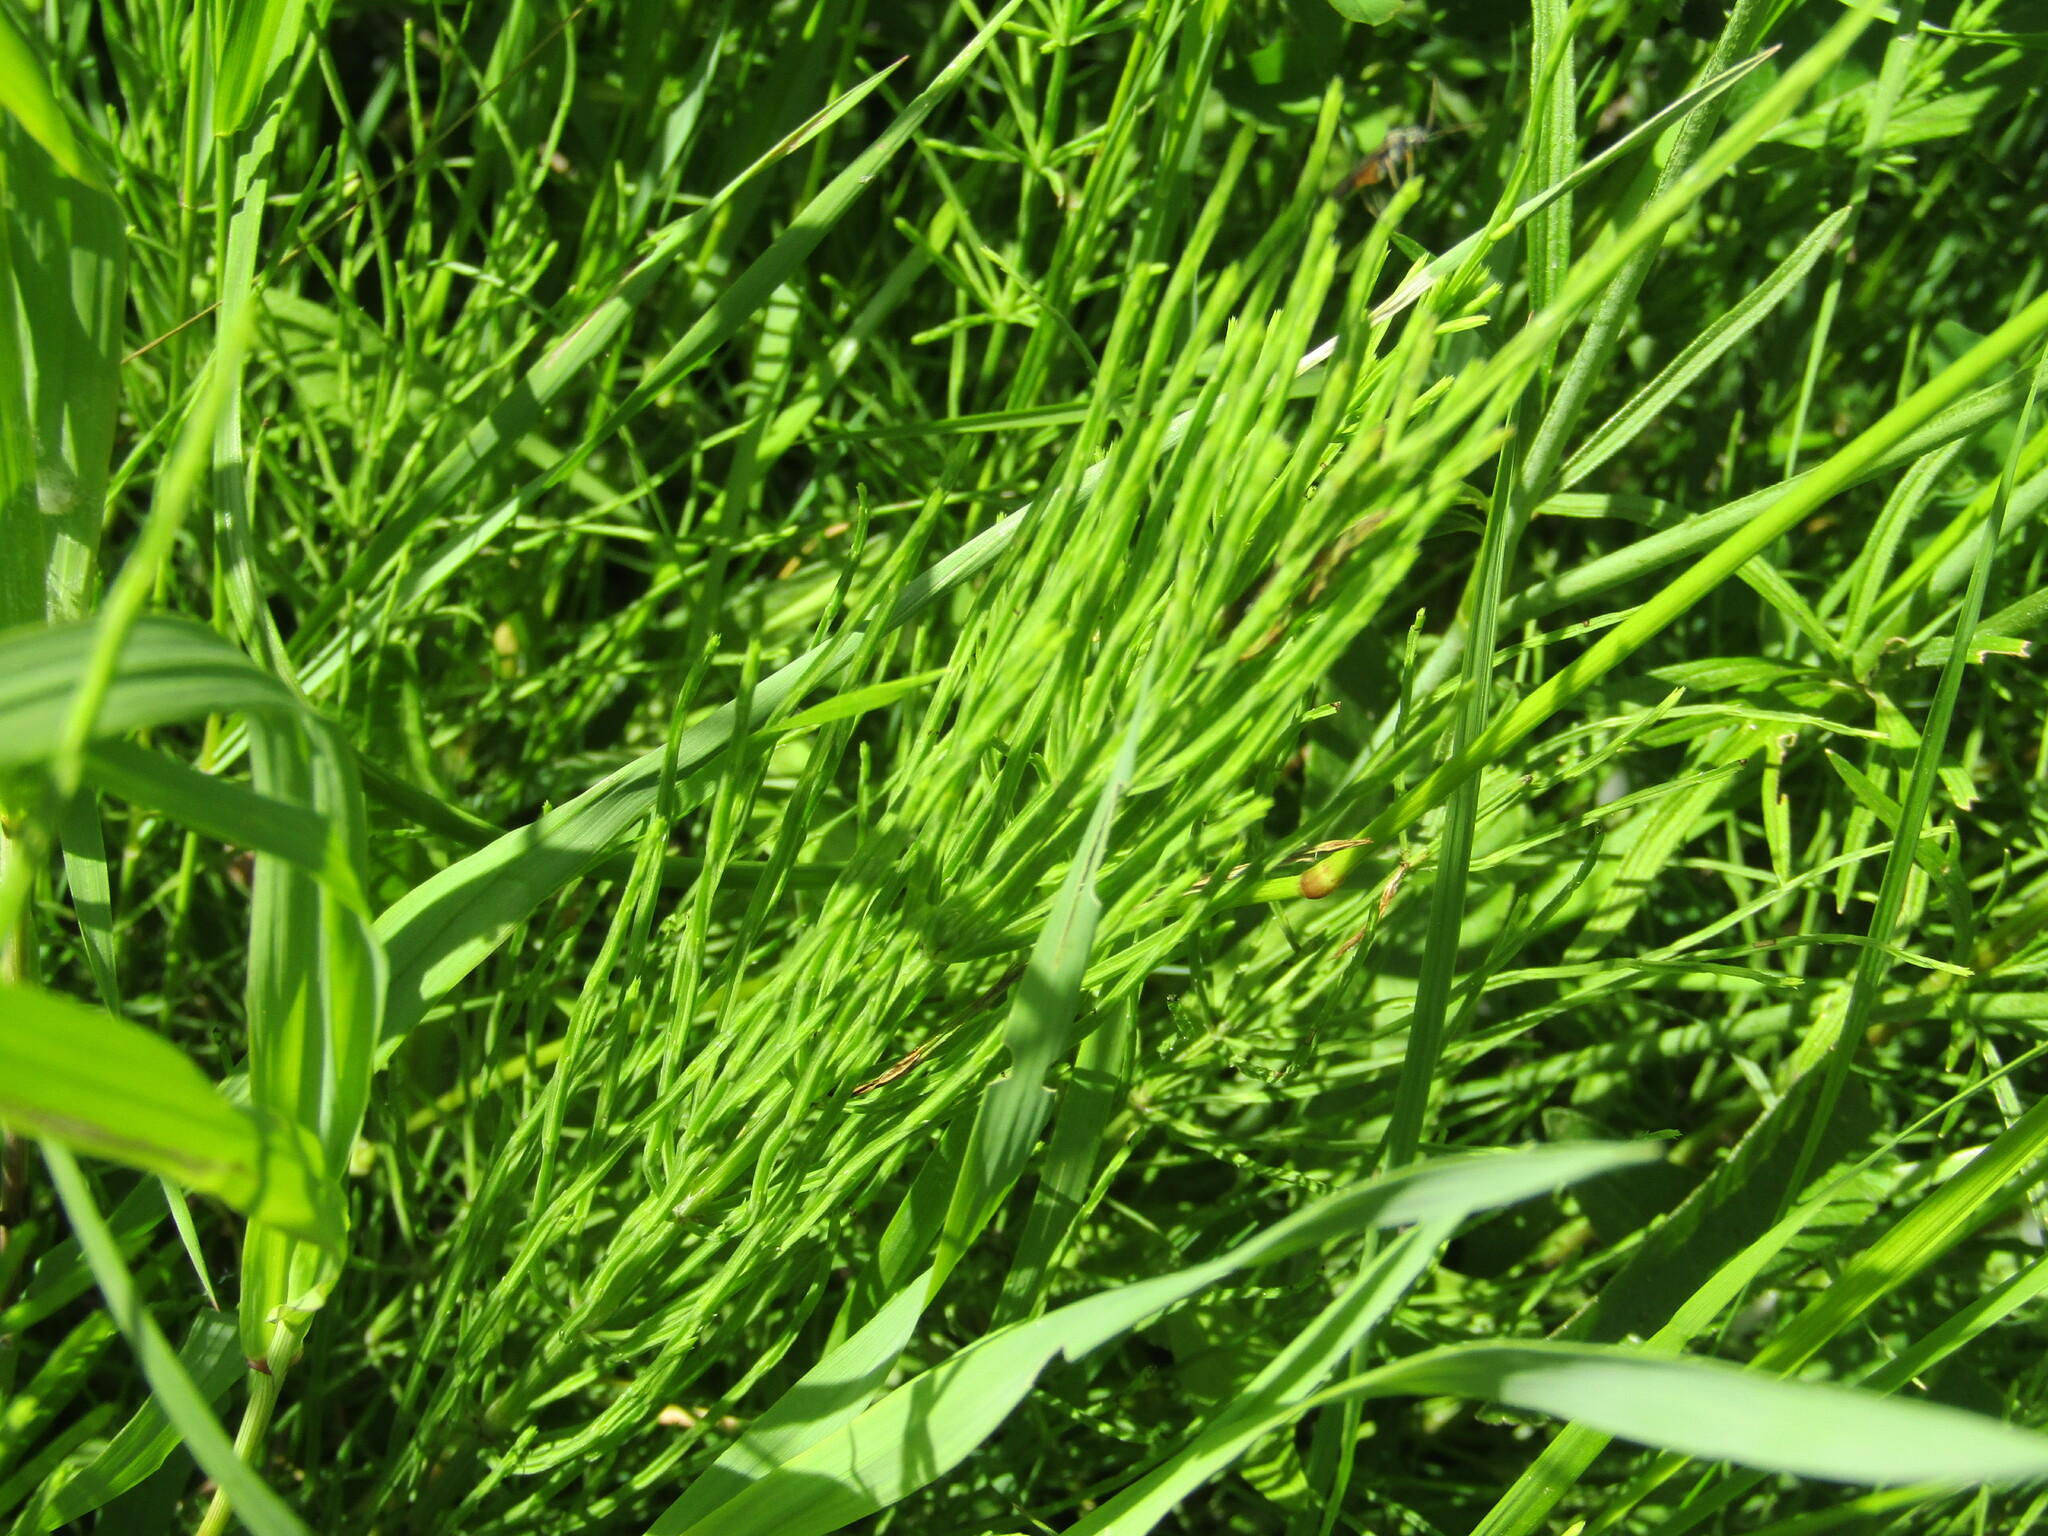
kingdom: Plantae
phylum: Tracheophyta
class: Polypodiopsida
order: Equisetales
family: Equisetaceae
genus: Equisetum
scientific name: Equisetum arvense
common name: Field horsetail
